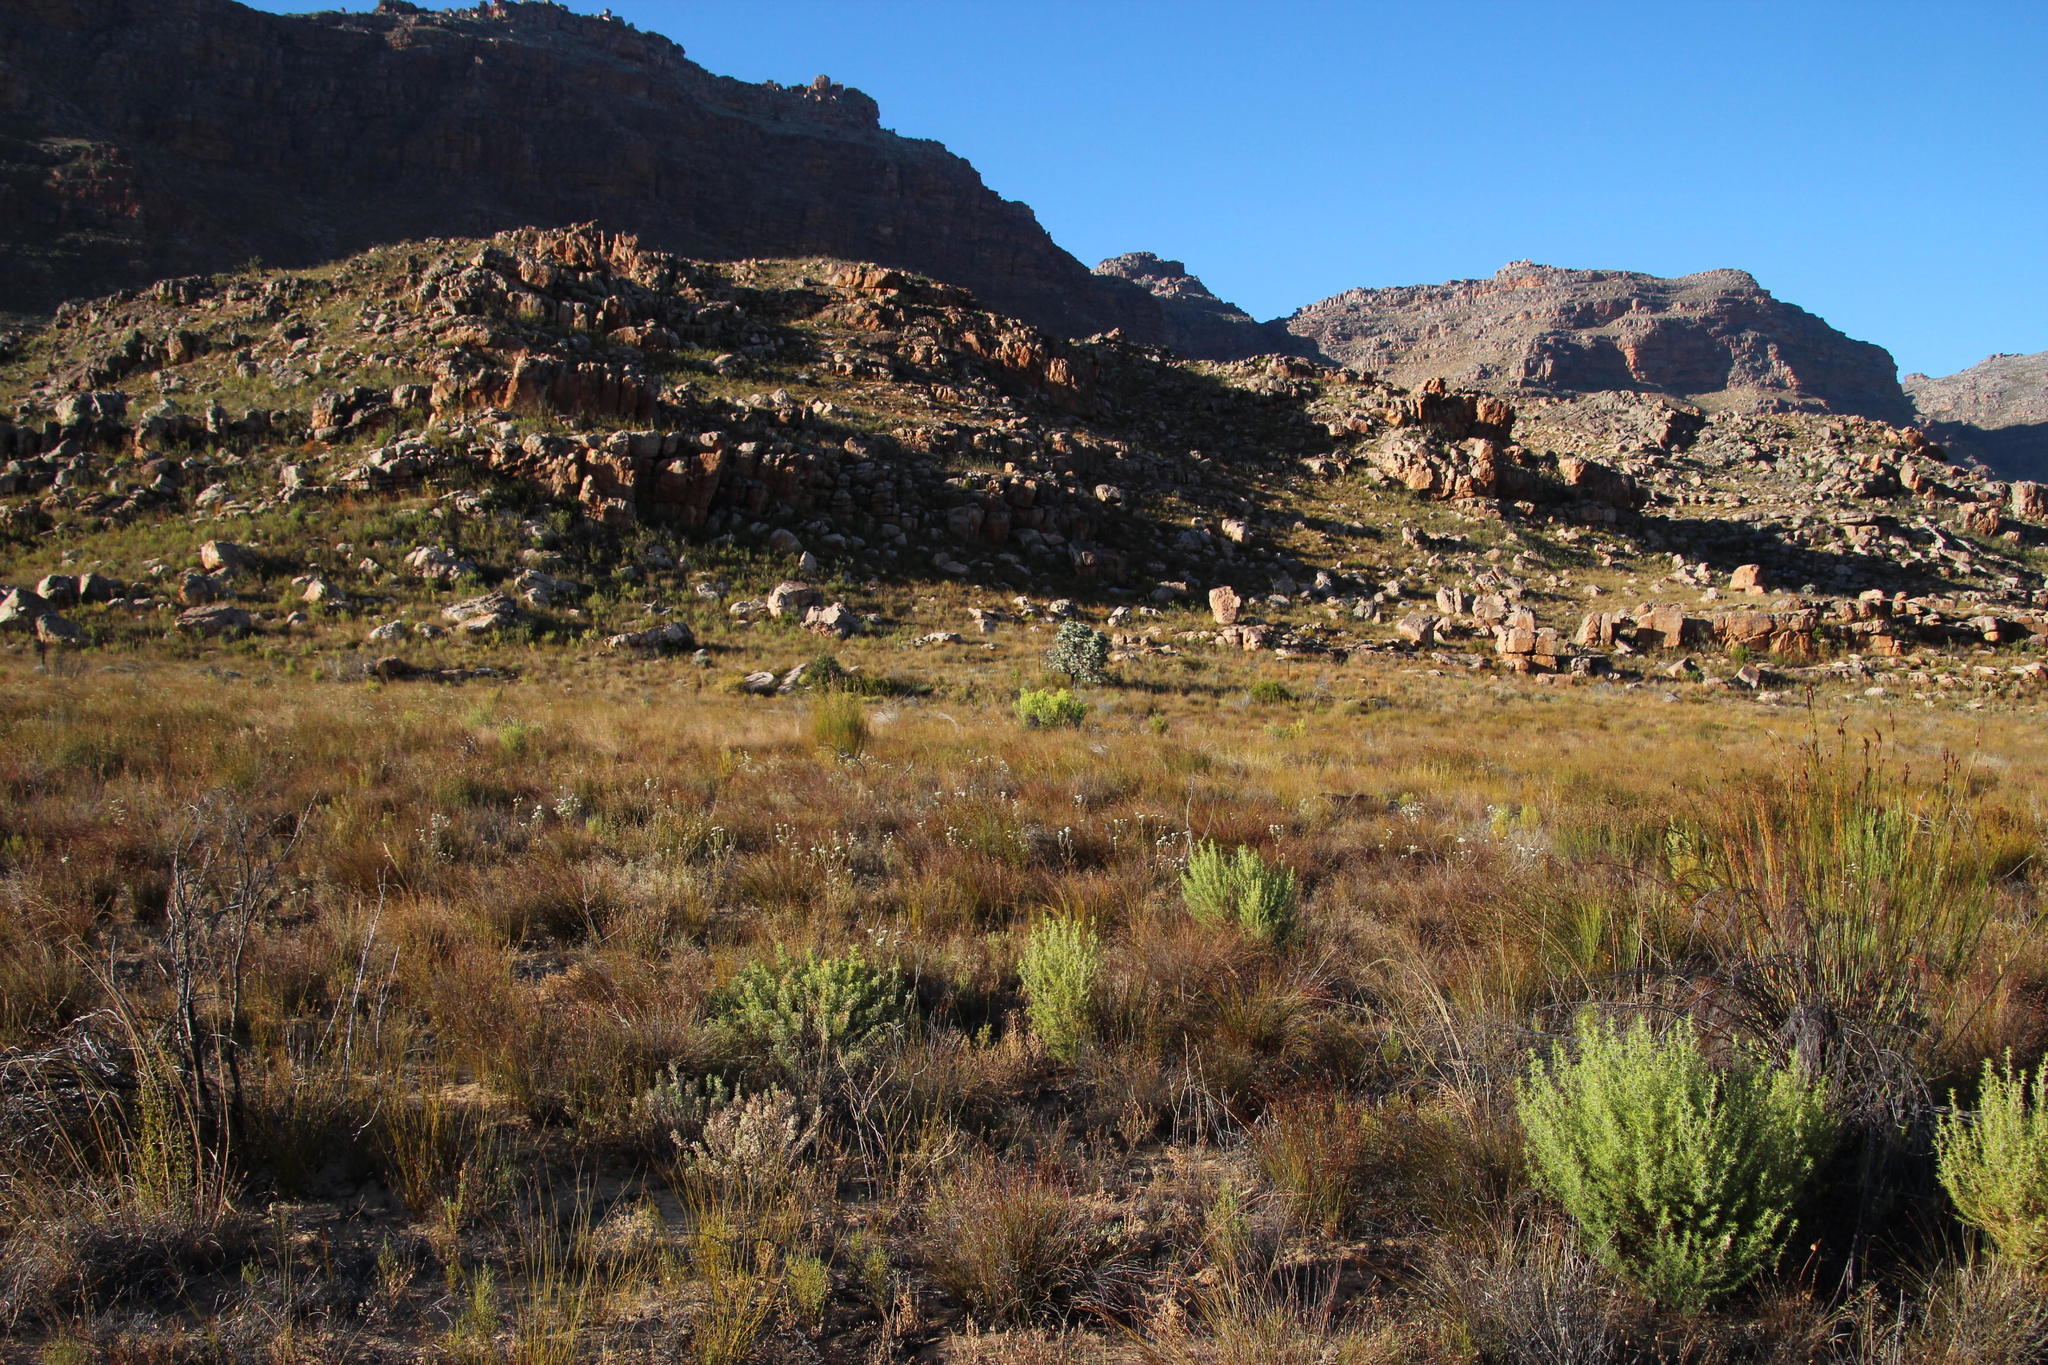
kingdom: Plantae
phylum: Tracheophyta
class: Magnoliopsida
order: Proteales
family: Proteaceae
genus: Leucadendron
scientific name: Leucadendron glaberrimum
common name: Common oily conebush
